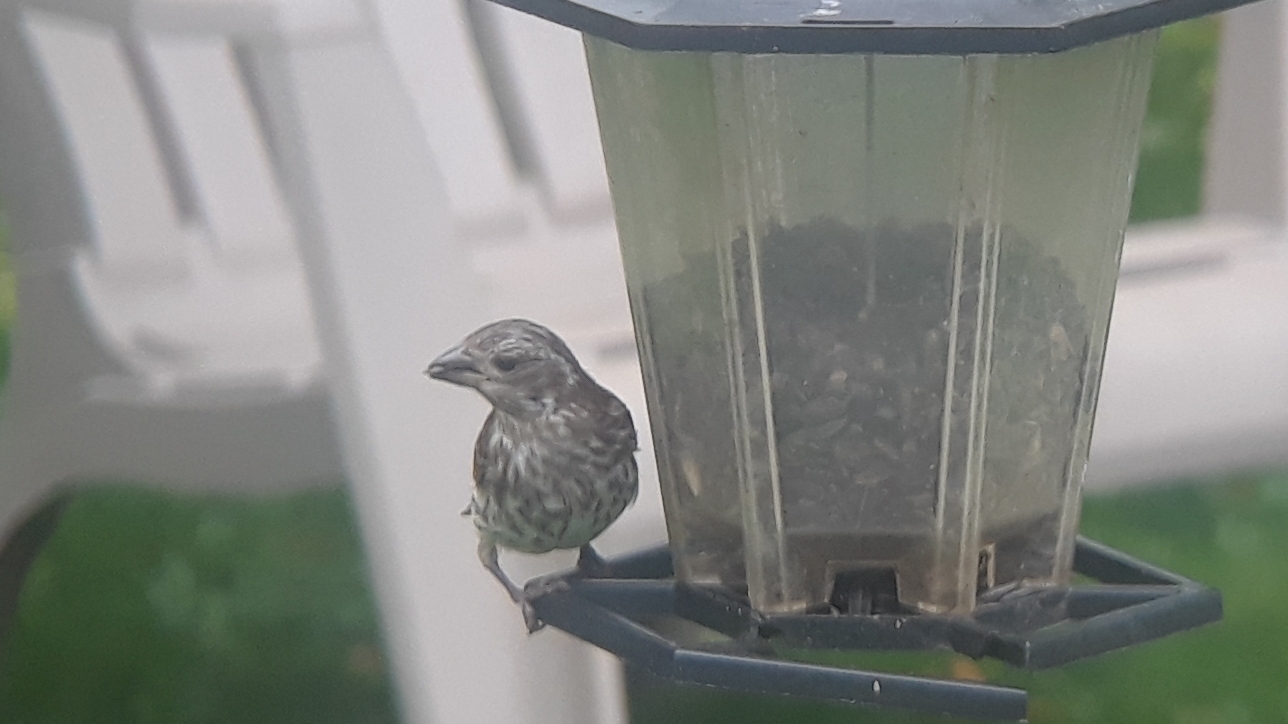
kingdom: Animalia
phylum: Chordata
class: Aves
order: Passeriformes
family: Fringillidae
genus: Haemorhous
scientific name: Haemorhous purpureus
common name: Purple finch
